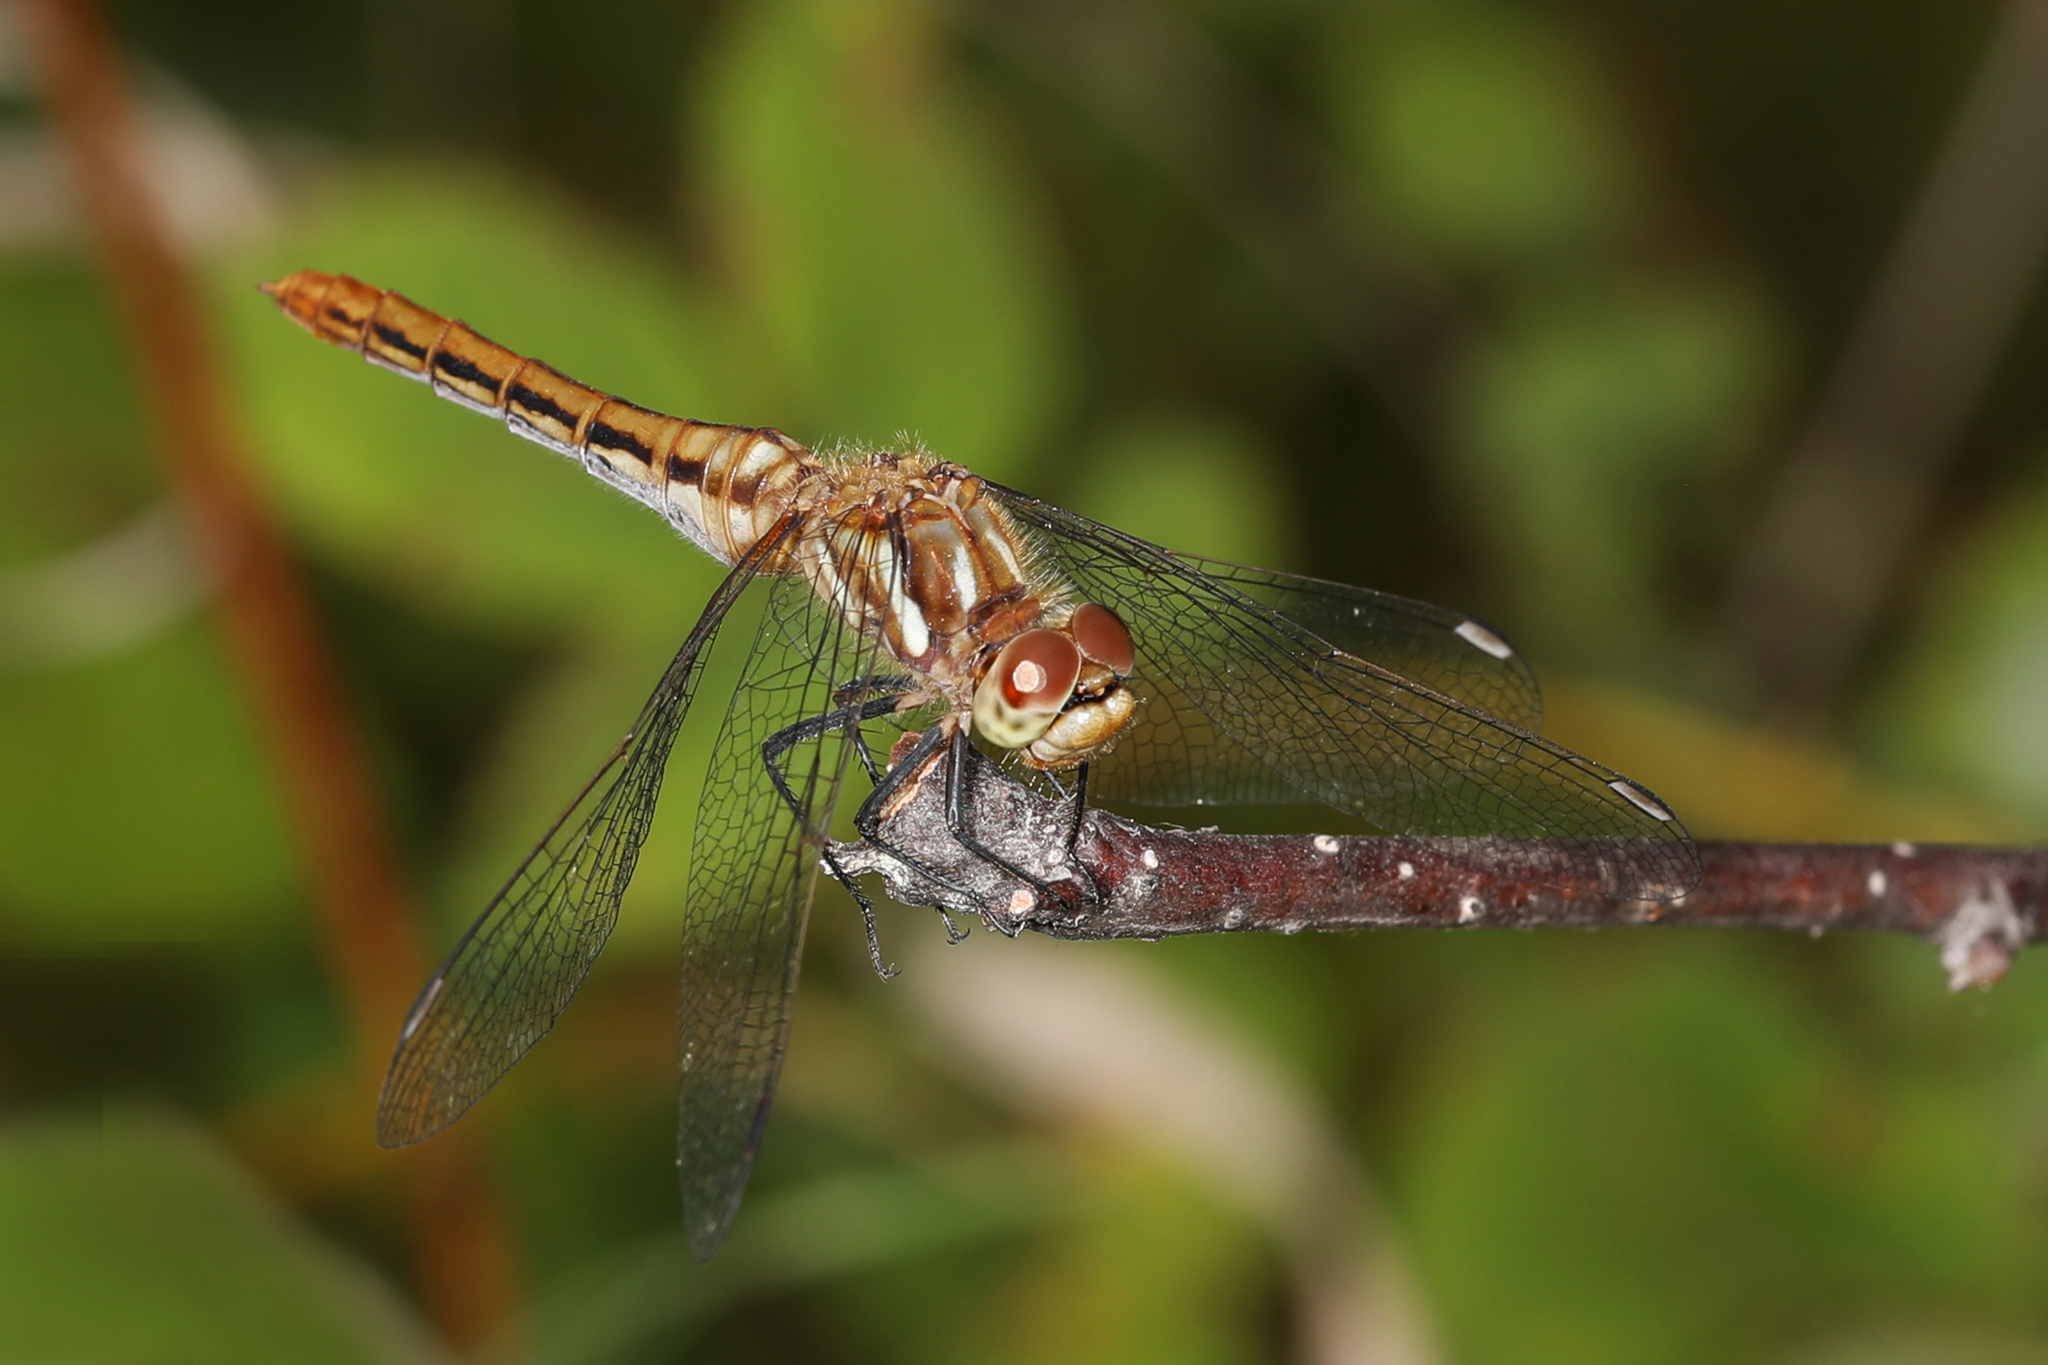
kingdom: Animalia
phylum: Arthropoda
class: Insecta
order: Odonata
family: Libellulidae
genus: Sympetrum
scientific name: Sympetrum pallipes
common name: Striped meadowhawk
